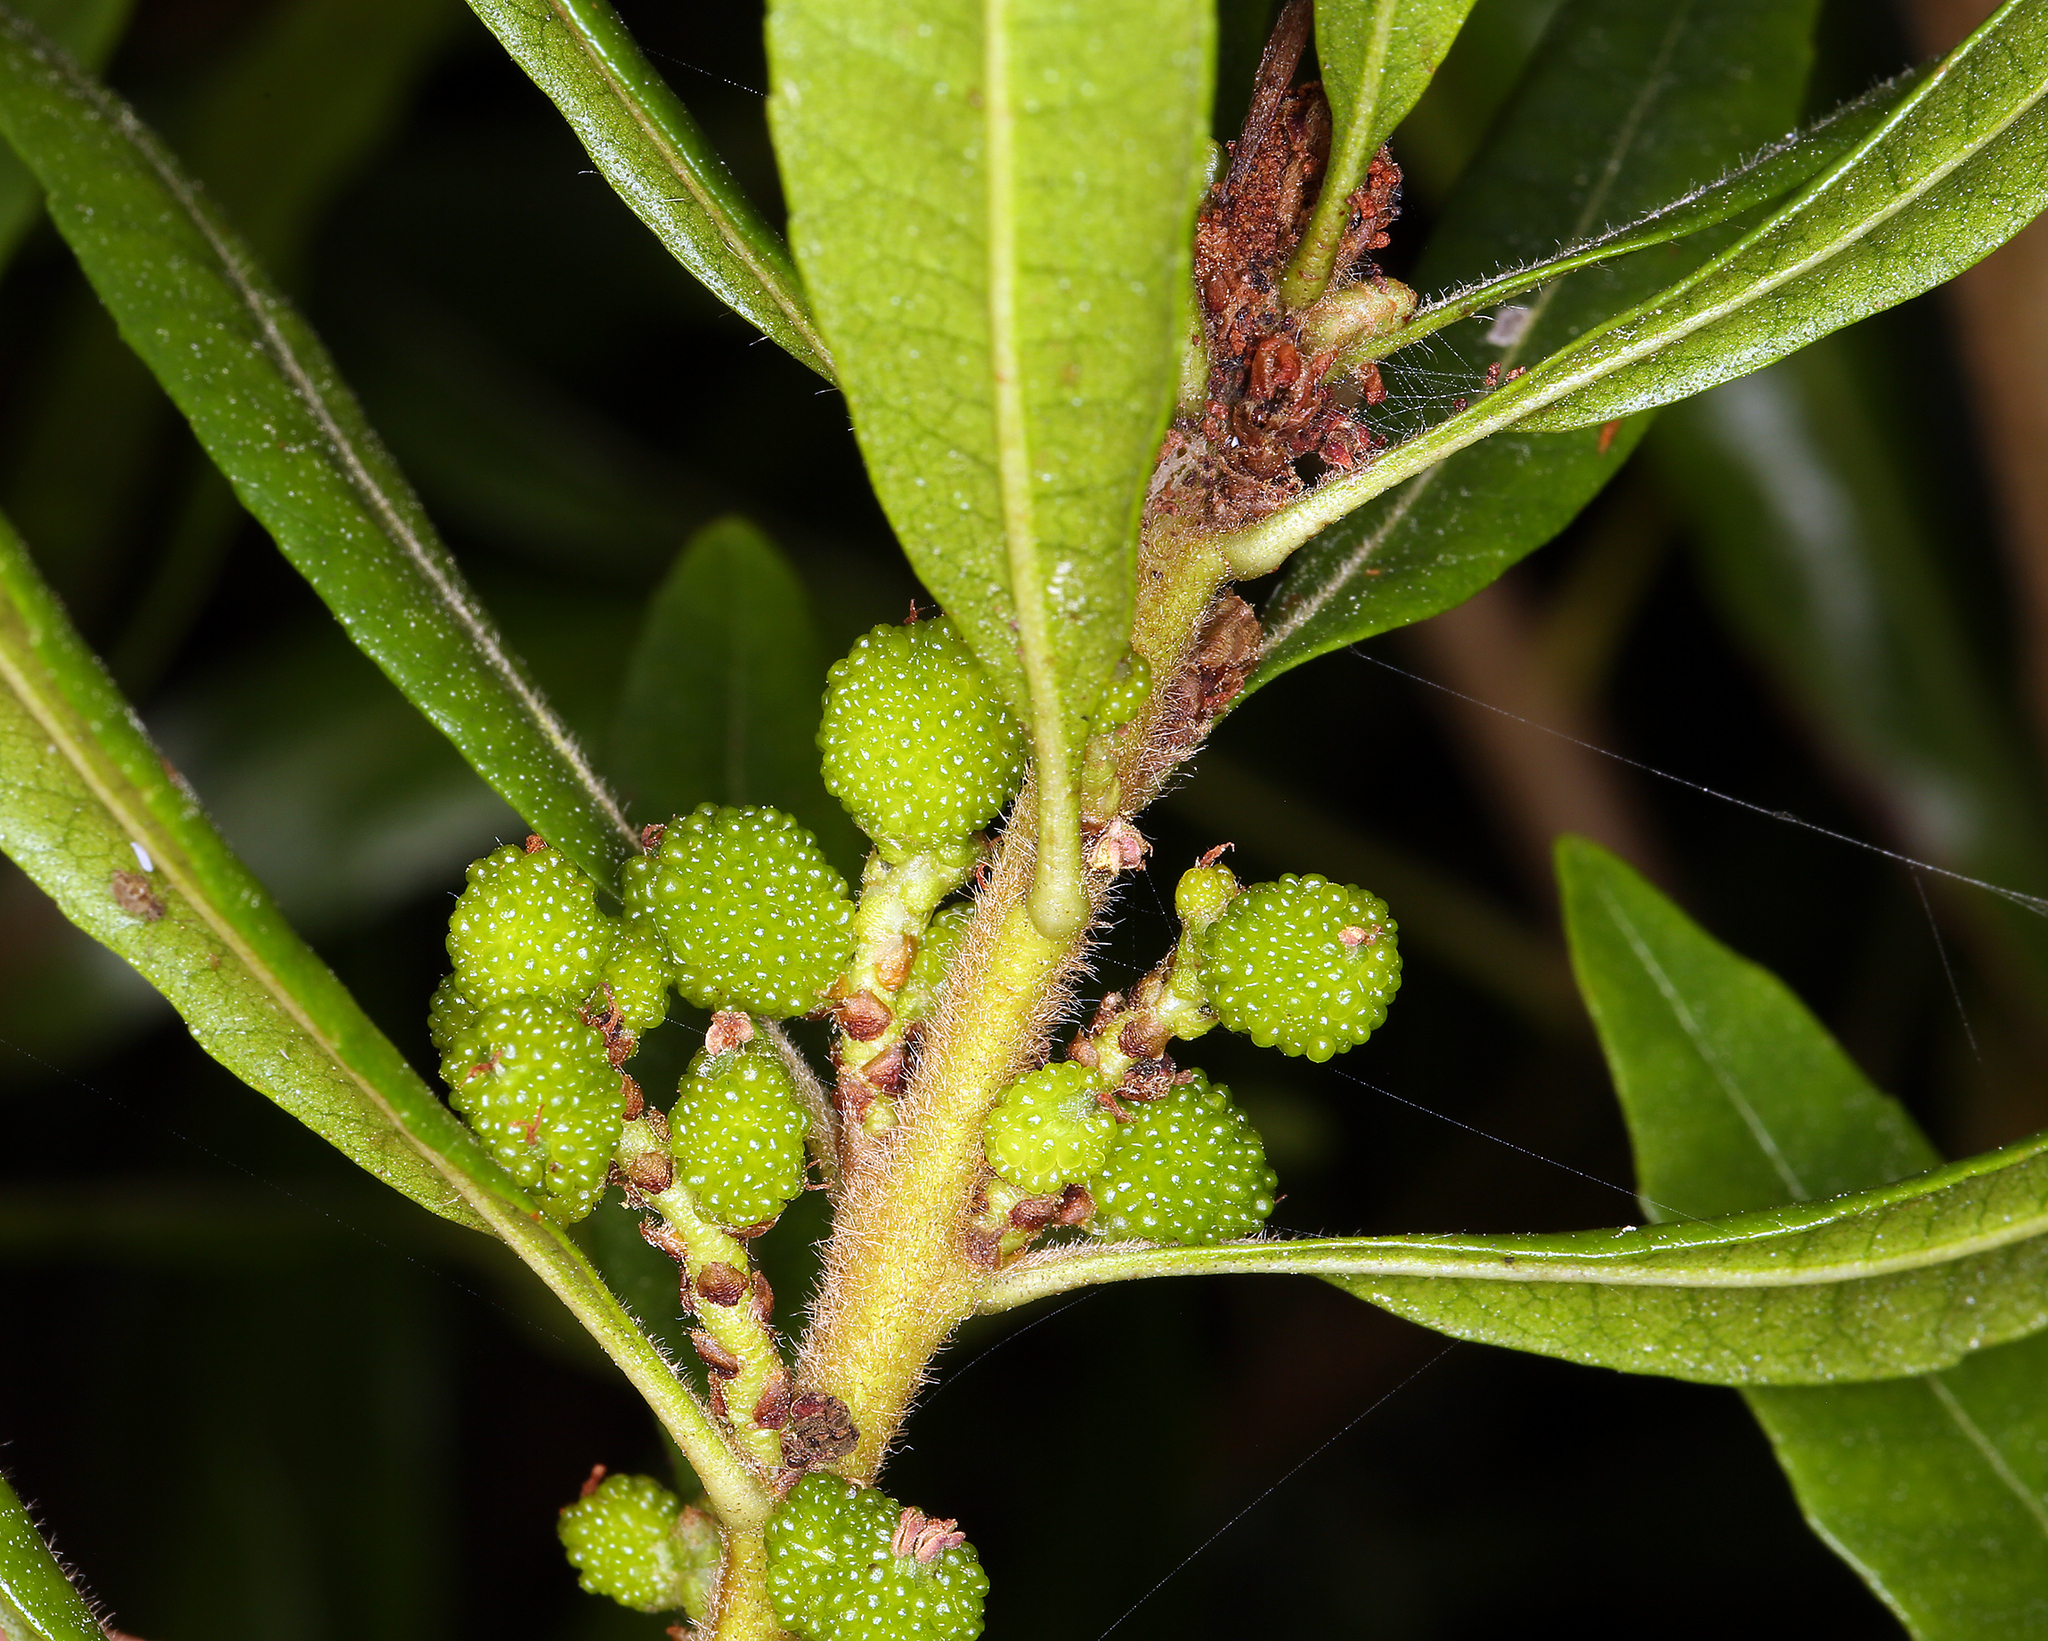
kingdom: Plantae
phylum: Tracheophyta
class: Magnoliopsida
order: Fagales
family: Myricaceae
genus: Morella
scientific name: Morella californica
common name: California wax-myrtle
